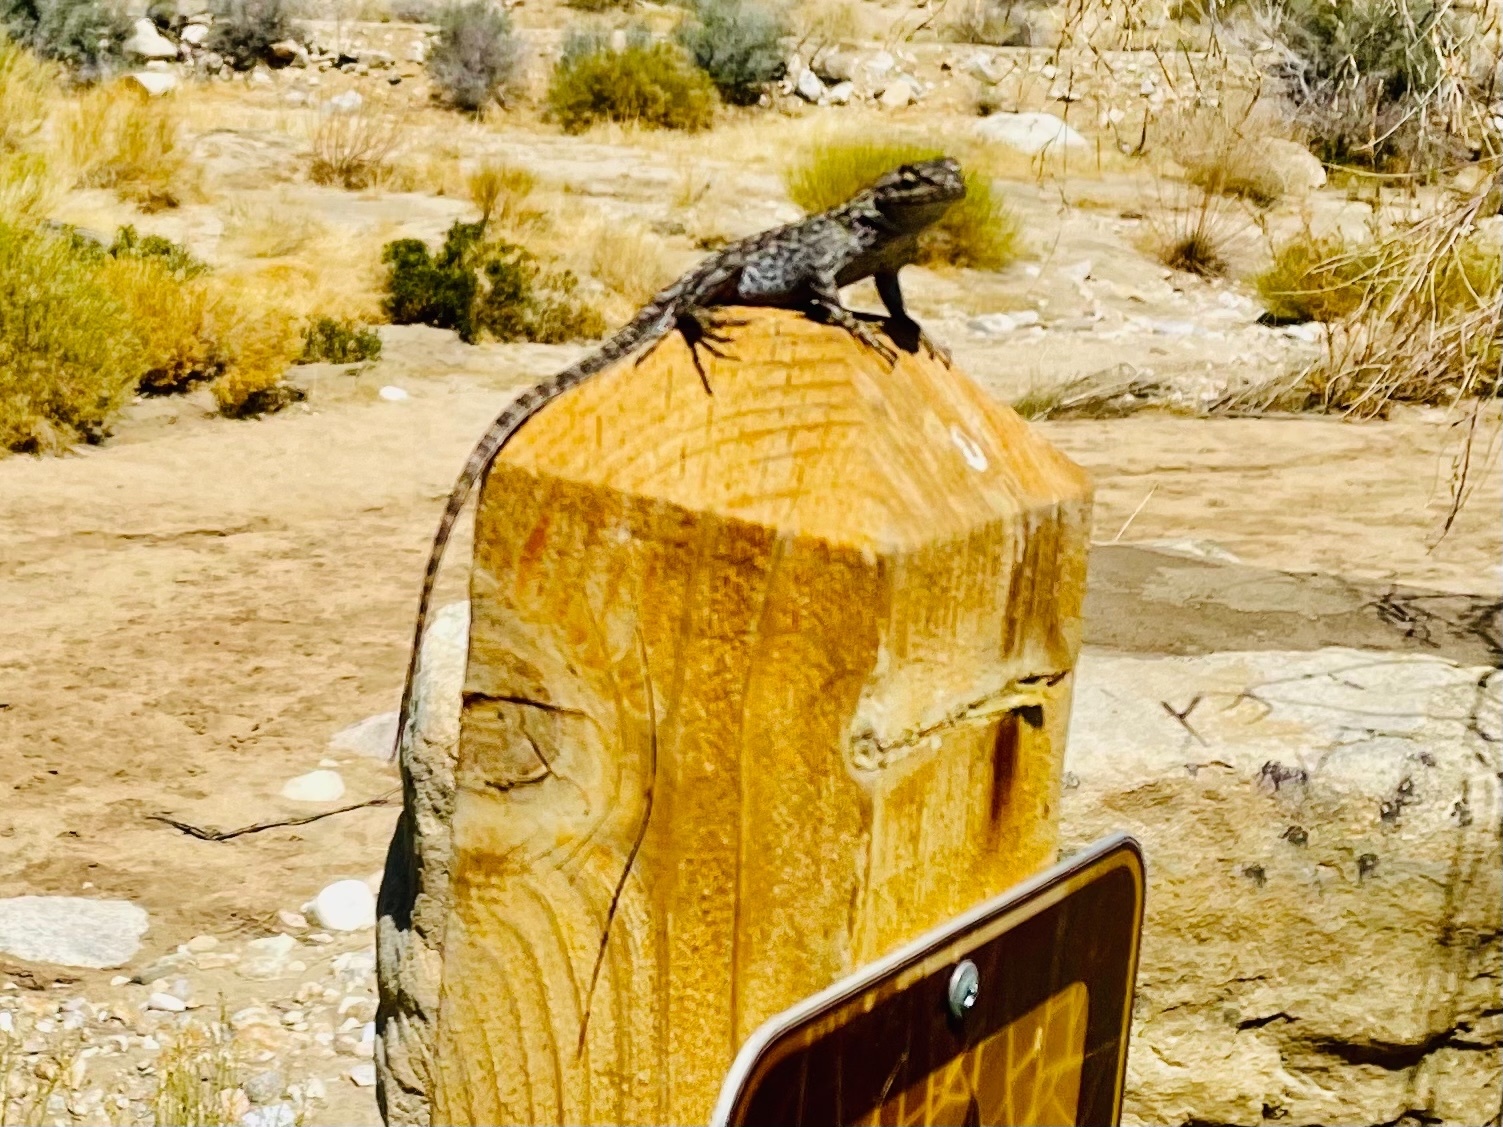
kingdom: Animalia
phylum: Chordata
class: Squamata
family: Phrynosomatidae
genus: Sceloporus
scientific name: Sceloporus occidentalis
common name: Western fence lizard
